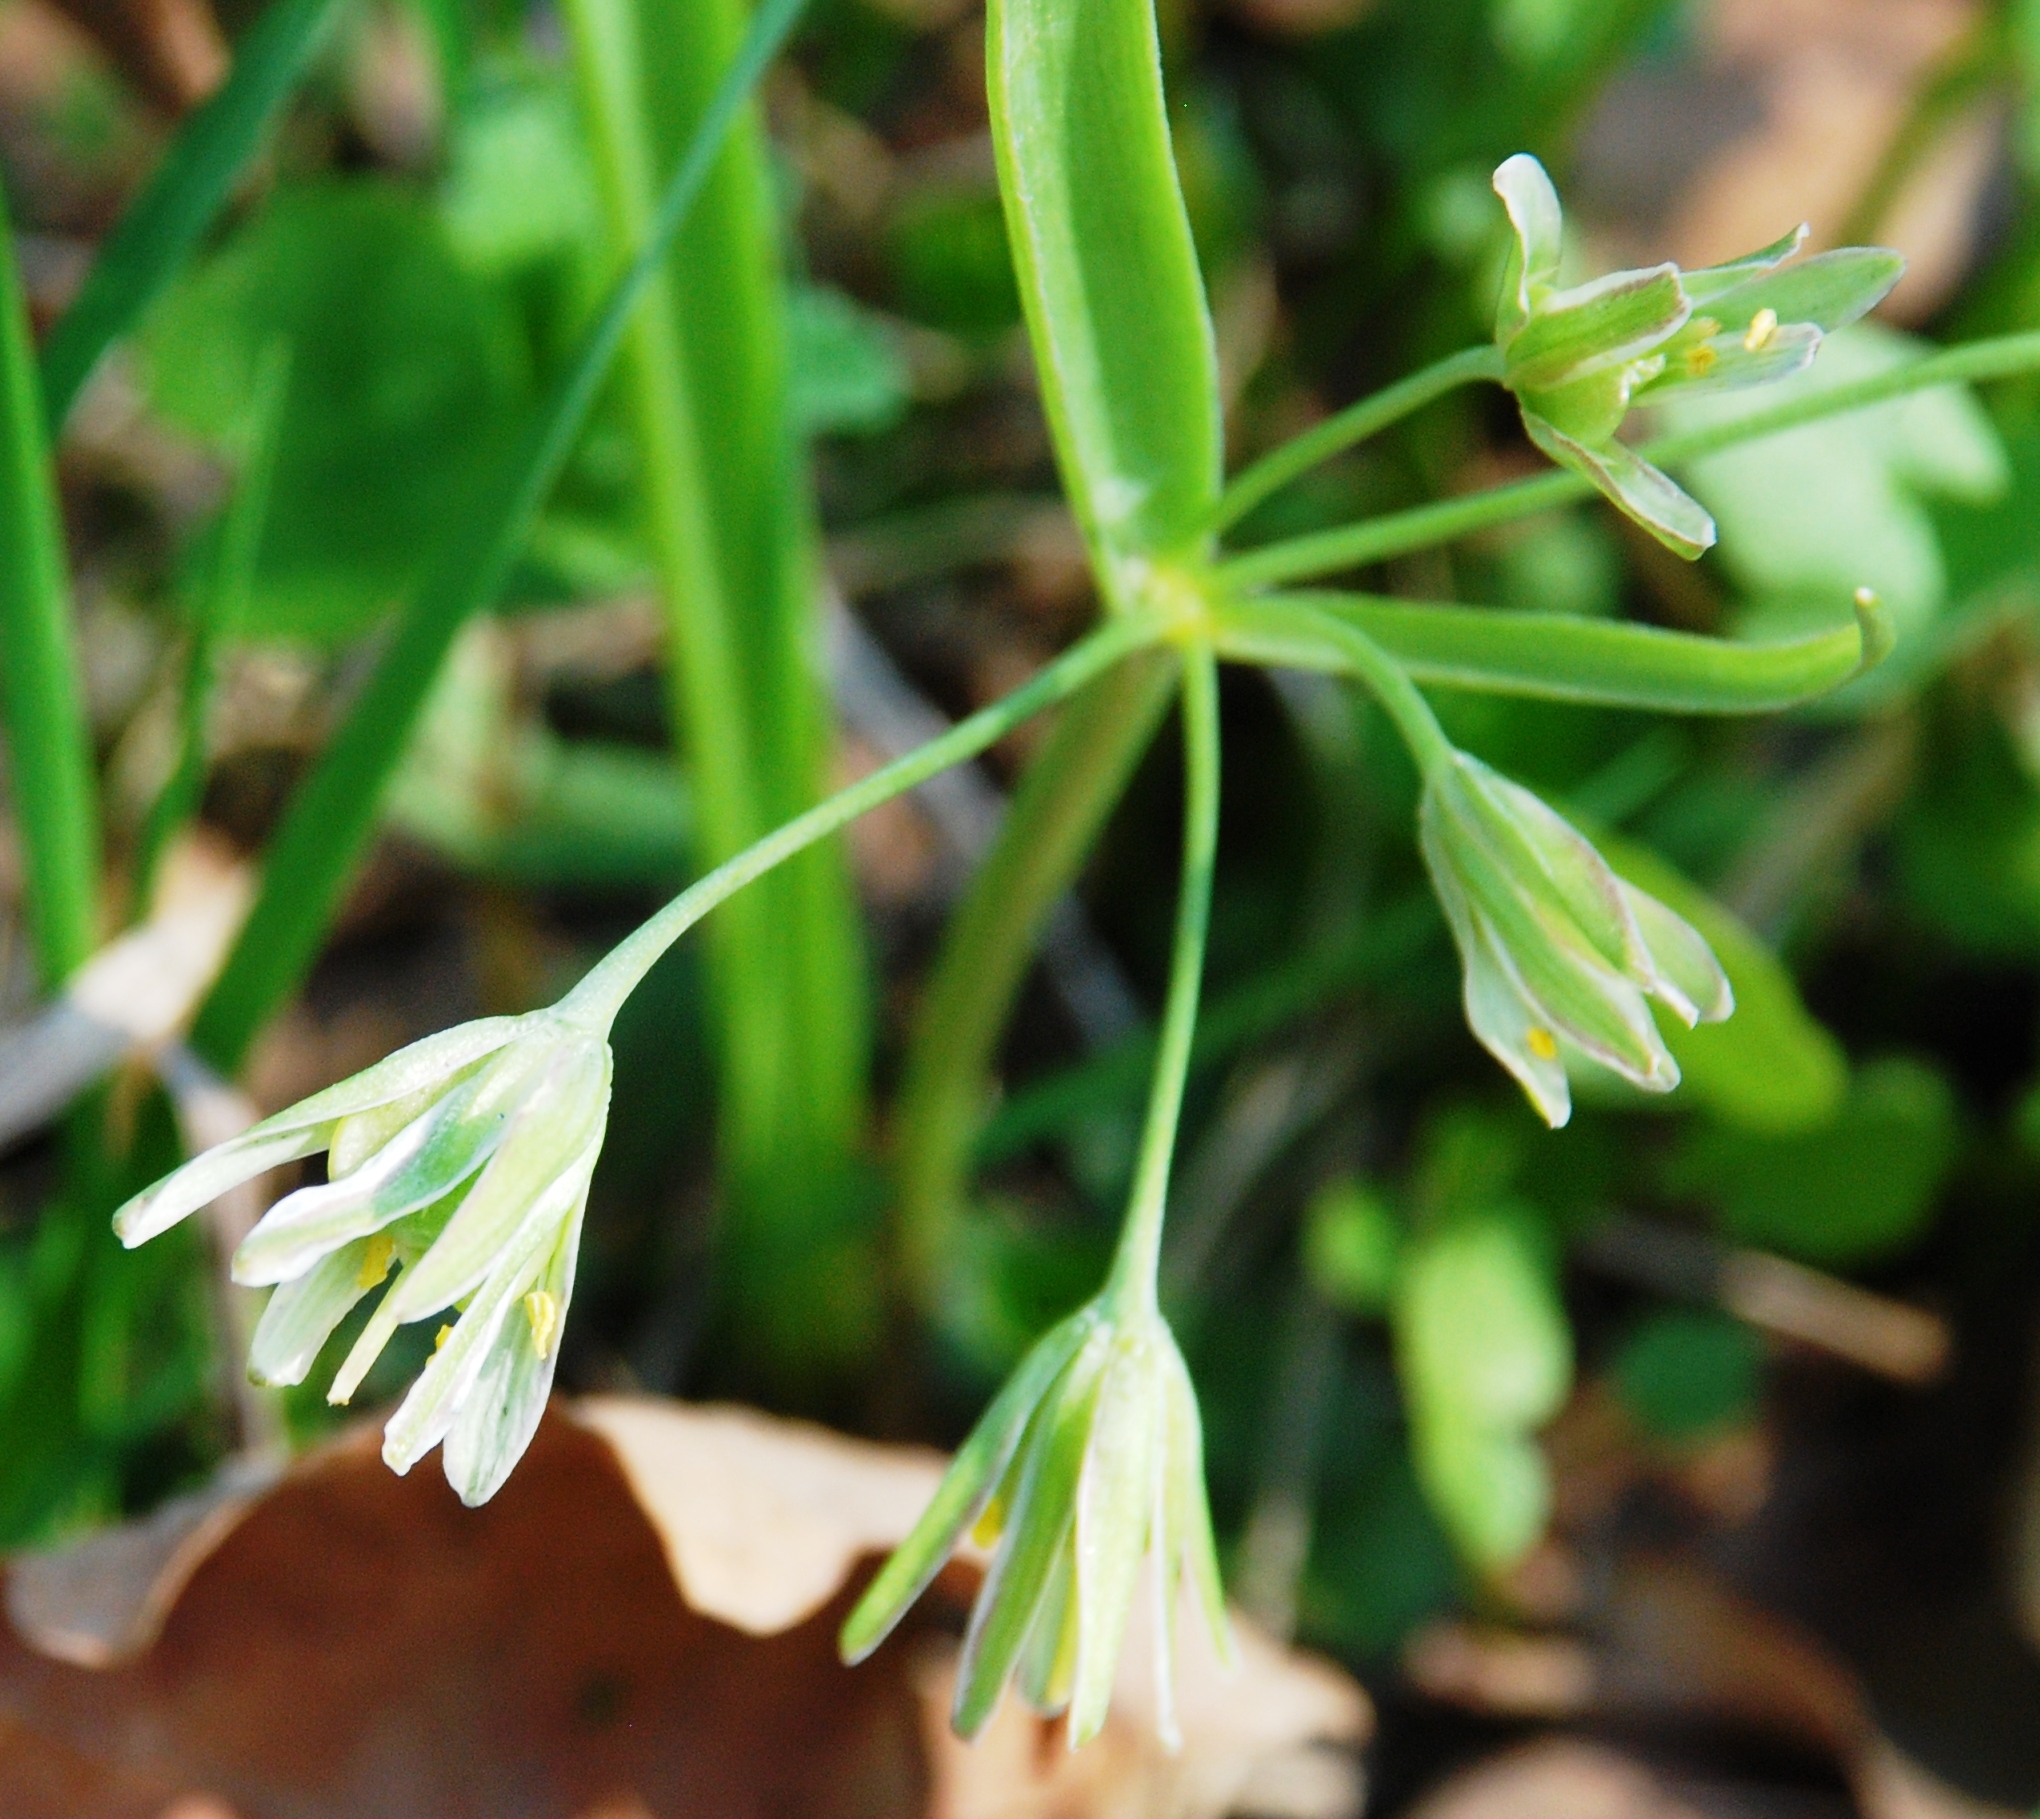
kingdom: Plantae
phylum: Tracheophyta
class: Liliopsida
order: Liliales
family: Liliaceae
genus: Gagea
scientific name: Gagea lutea
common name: Yellow star-of-bethlehem
